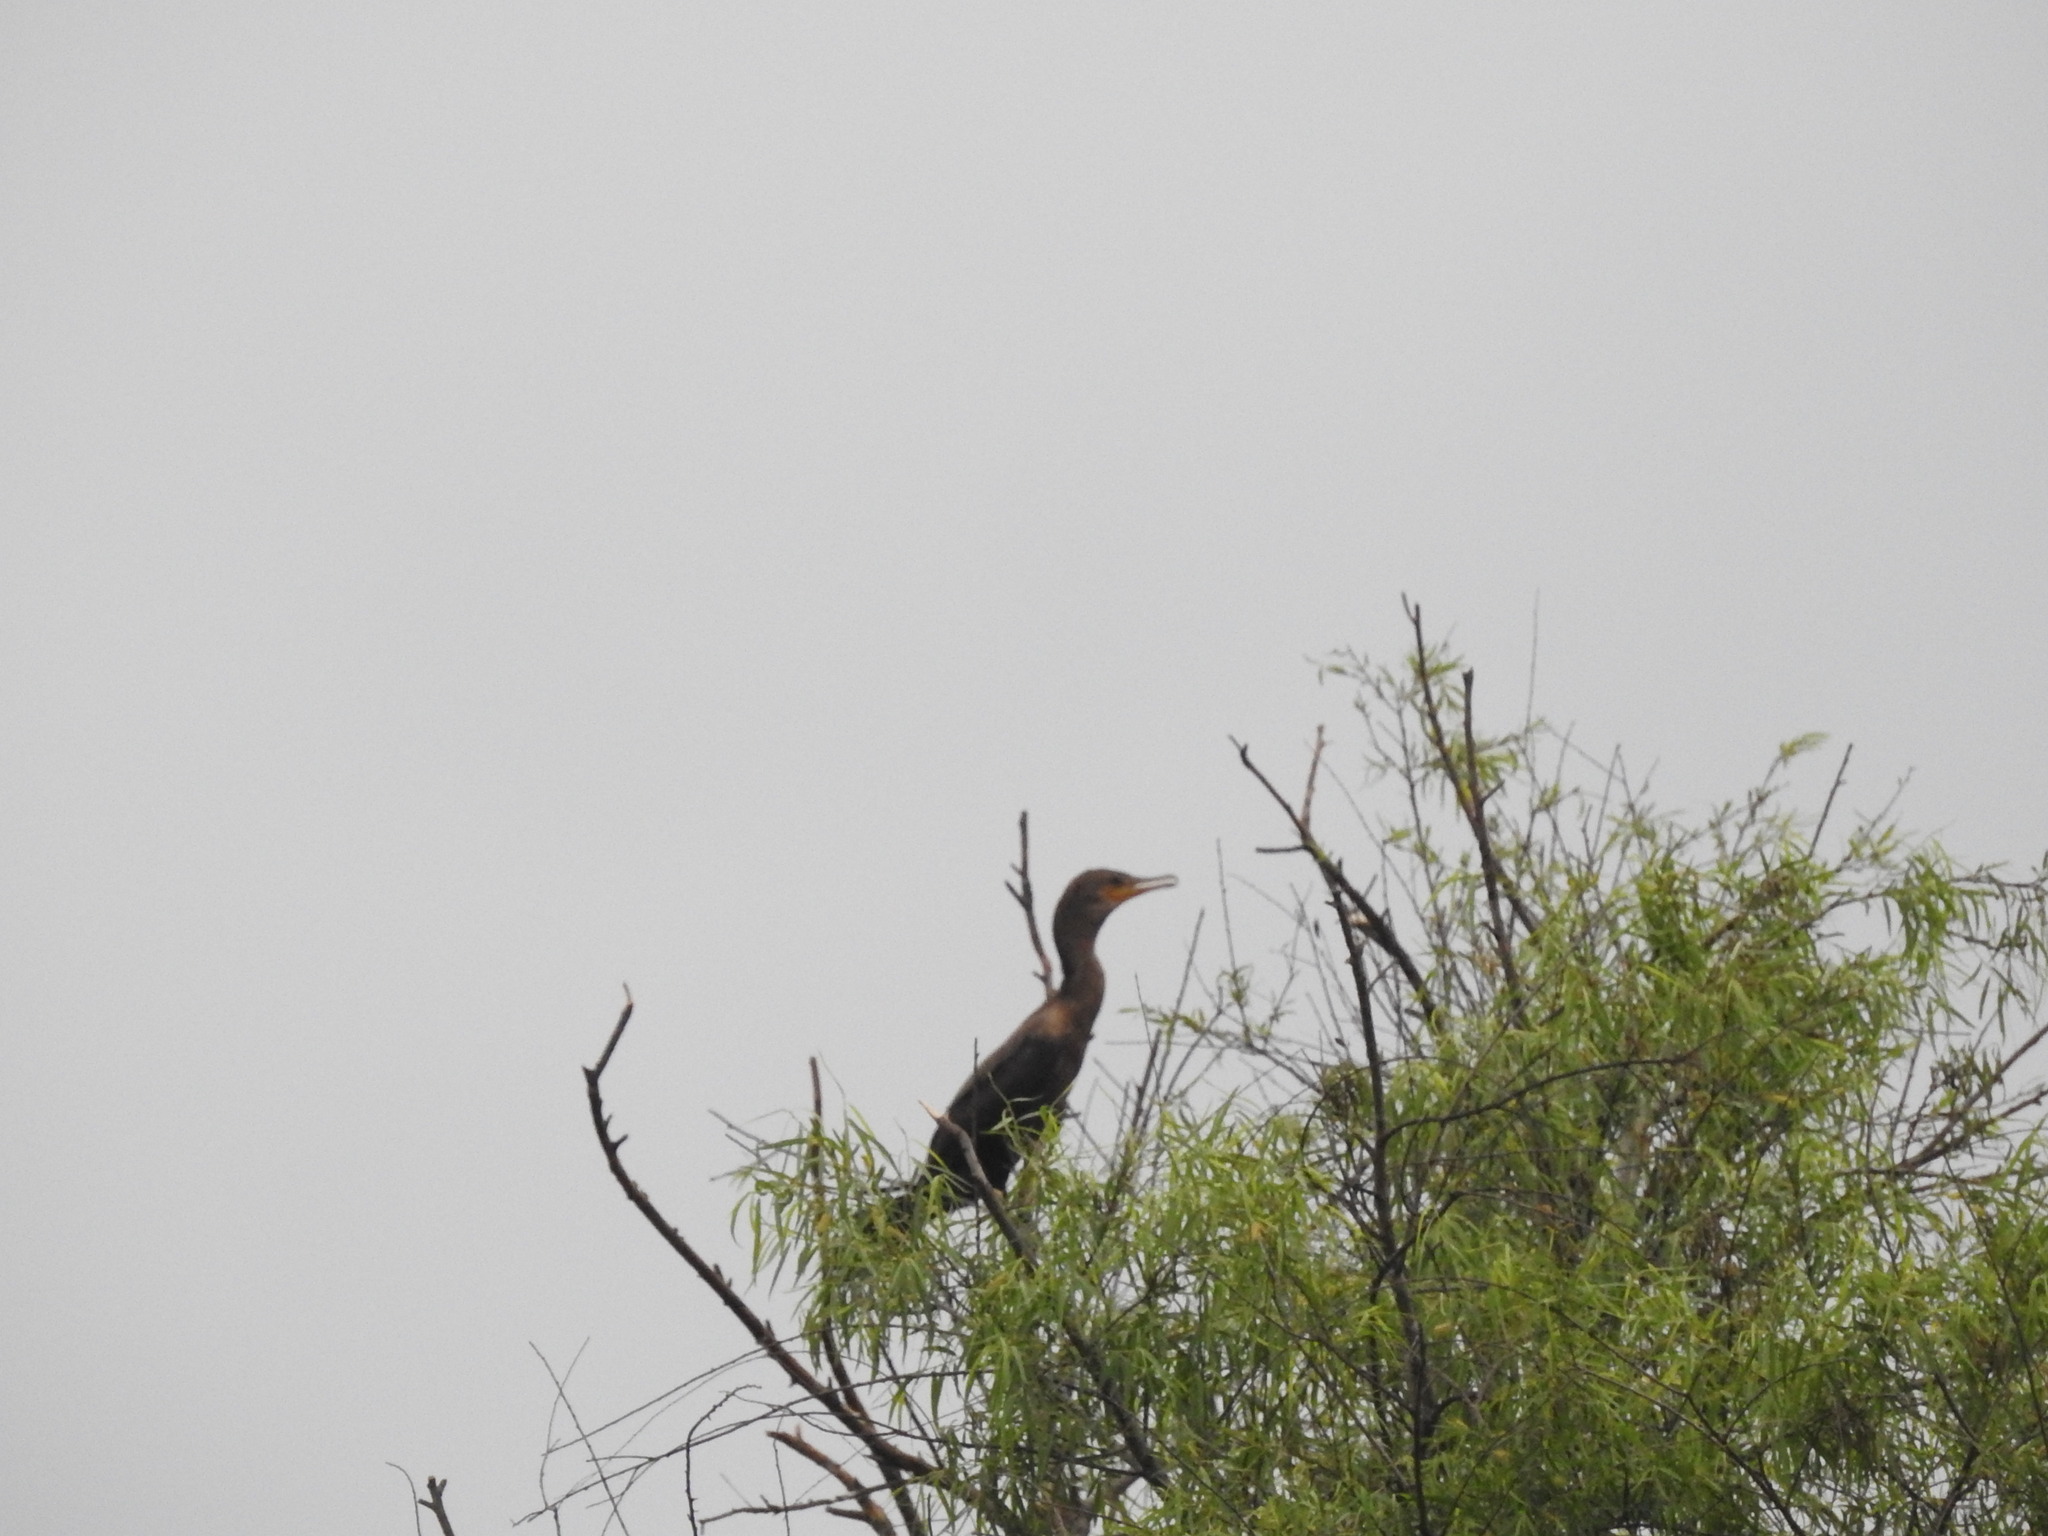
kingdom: Animalia
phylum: Chordata
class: Aves
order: Suliformes
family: Phalacrocoracidae
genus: Phalacrocorax
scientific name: Phalacrocorax brasilianus
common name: Neotropic cormorant
